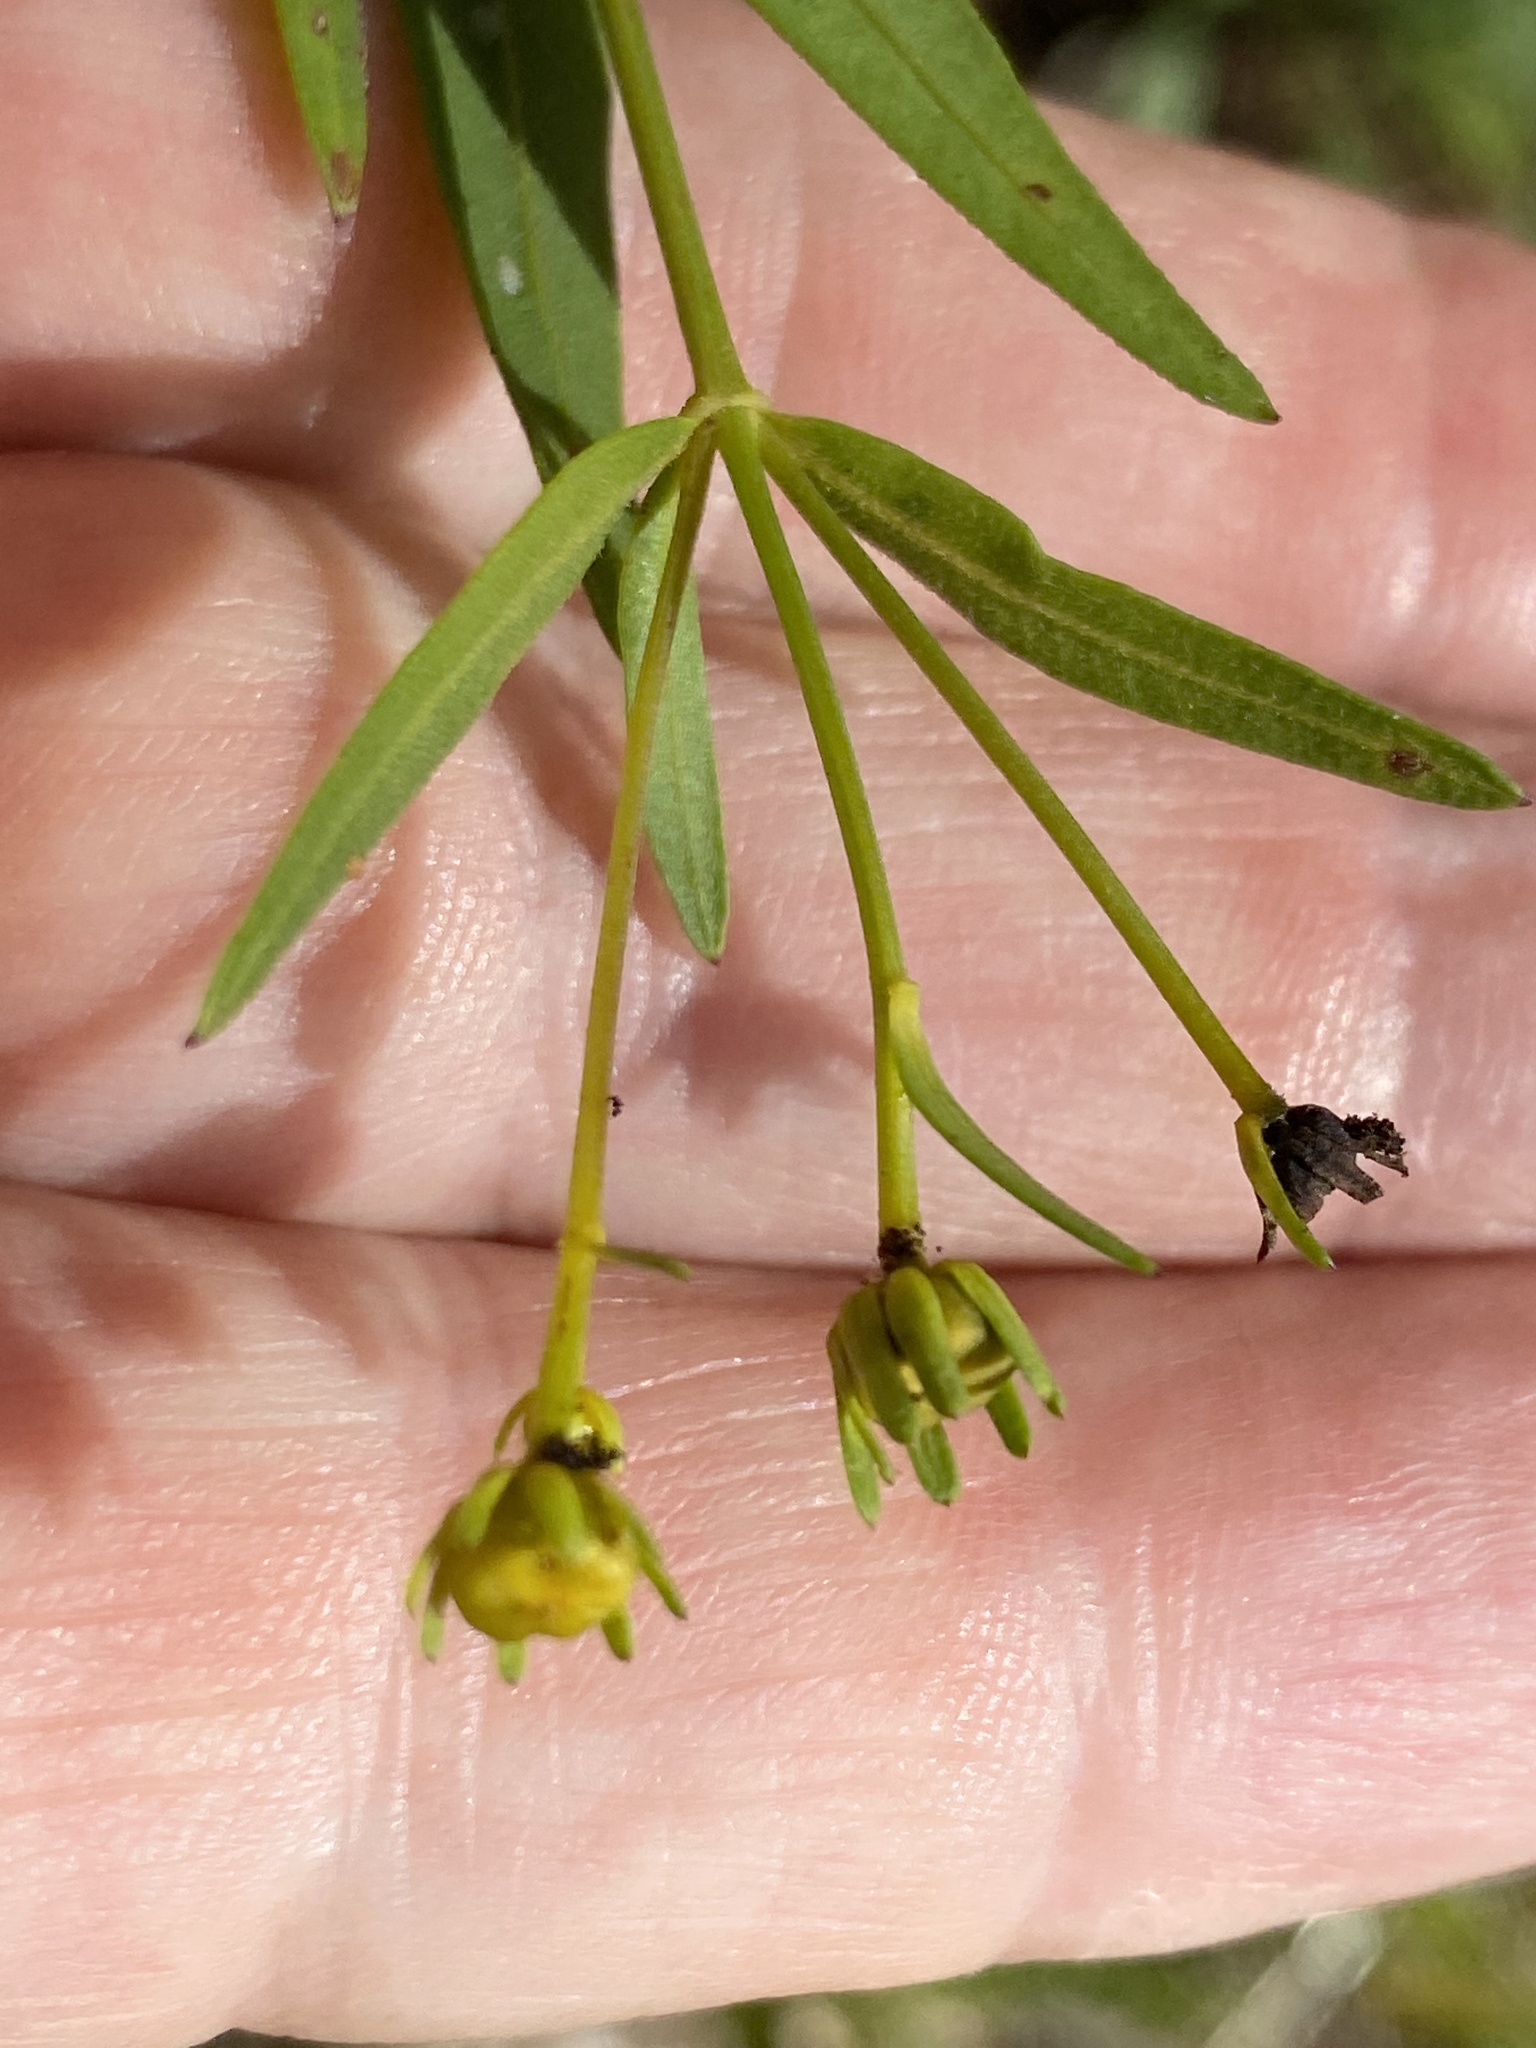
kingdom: Plantae
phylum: Tracheophyta
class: Magnoliopsida
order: Asterales
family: Asteraceae
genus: Coreopsis
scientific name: Coreopsis major
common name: Forest tickseed
